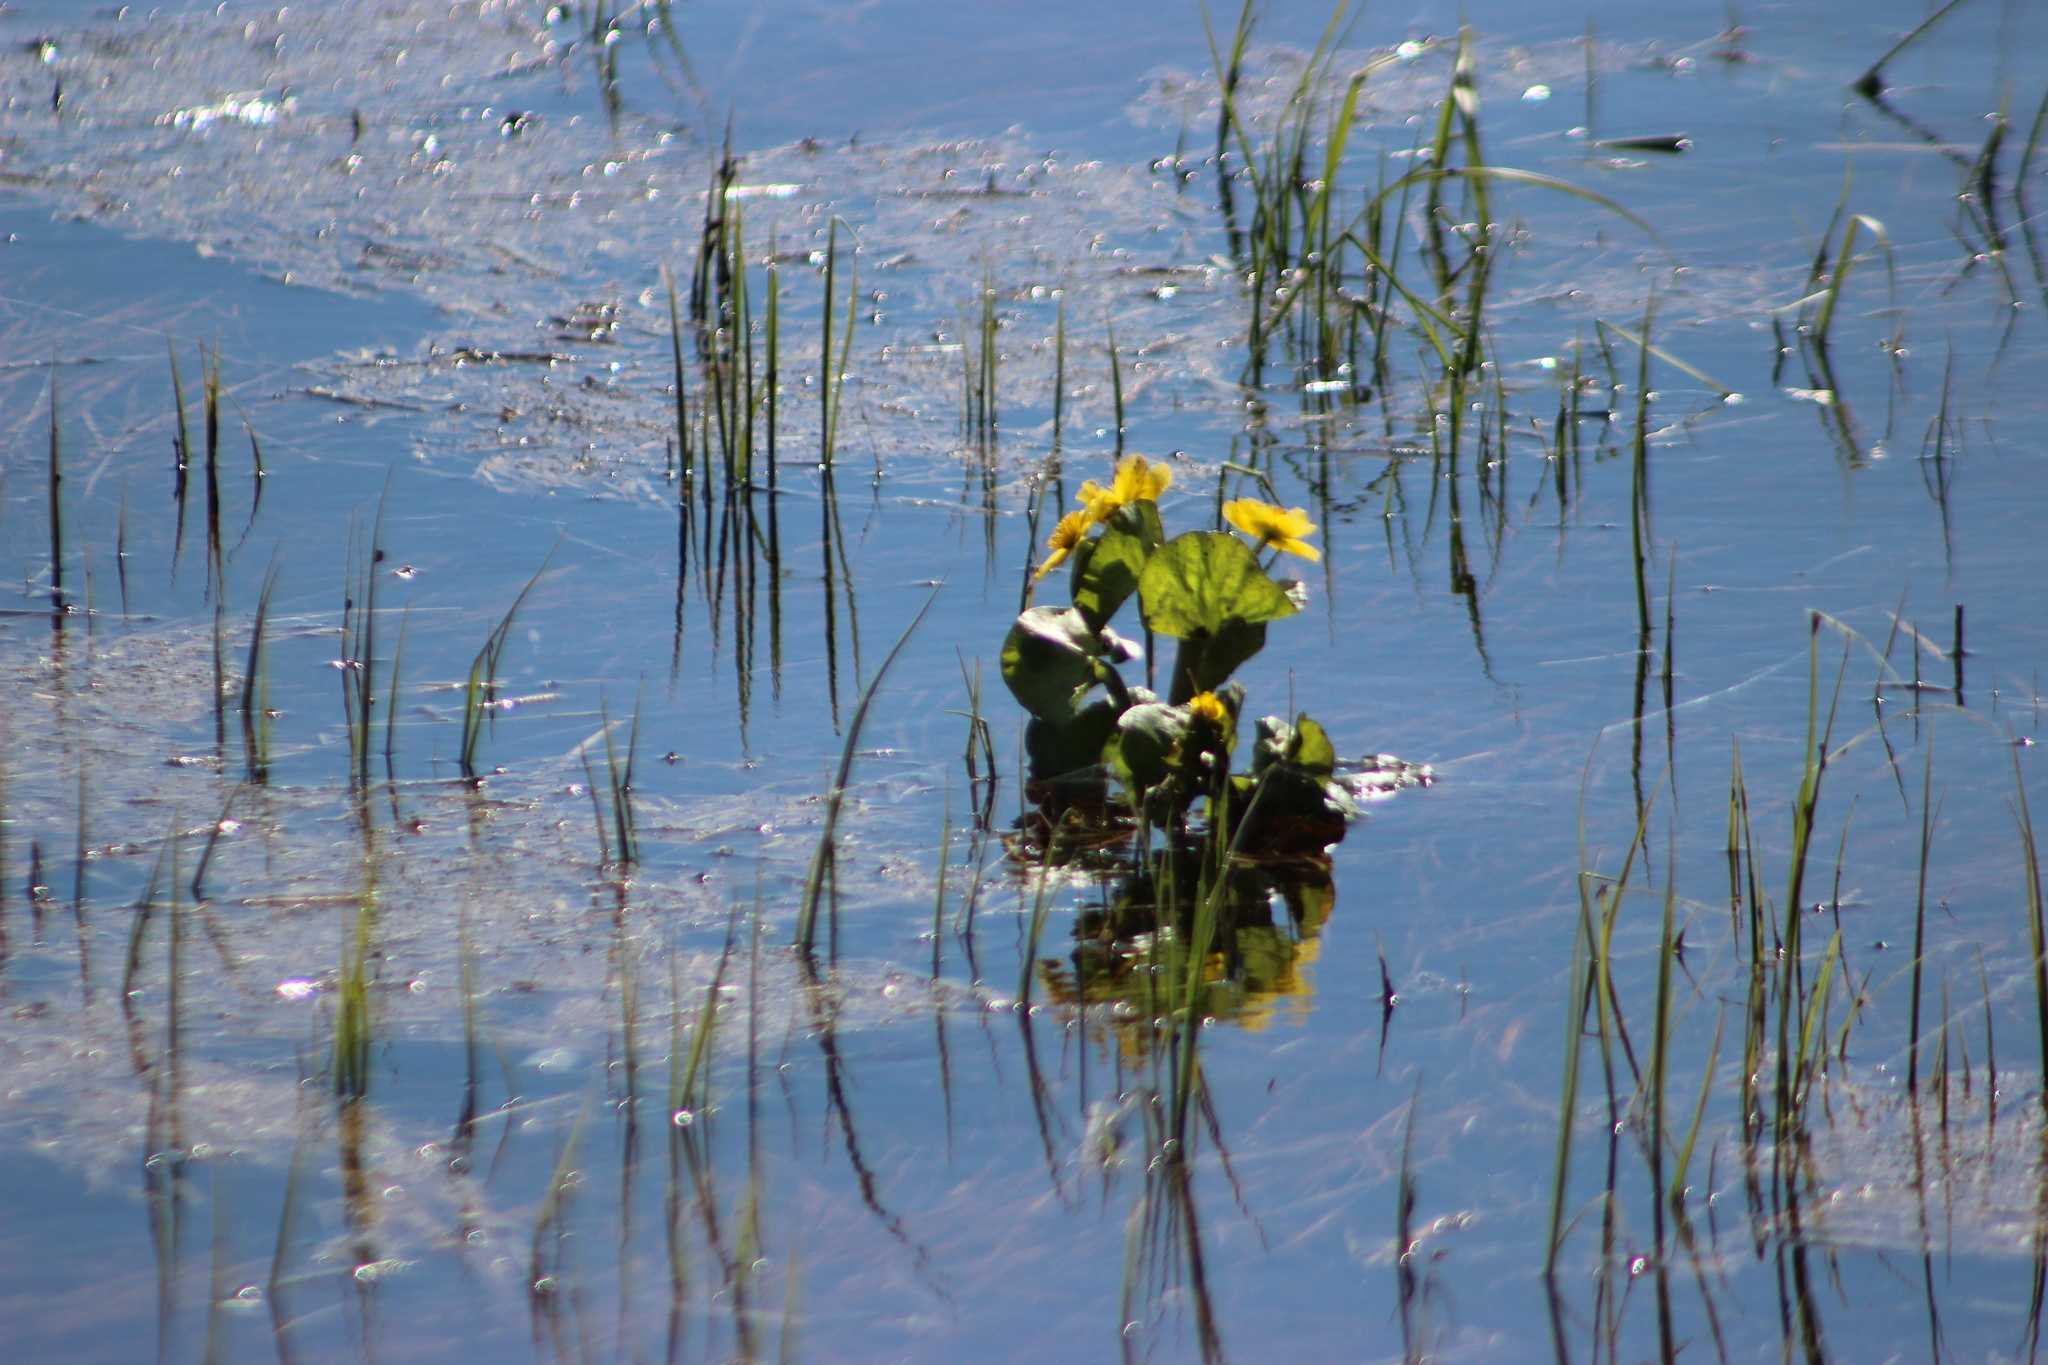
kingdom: Plantae
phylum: Tracheophyta
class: Magnoliopsida
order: Ranunculales
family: Ranunculaceae
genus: Caltha
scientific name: Caltha palustris
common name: Marsh marigold
